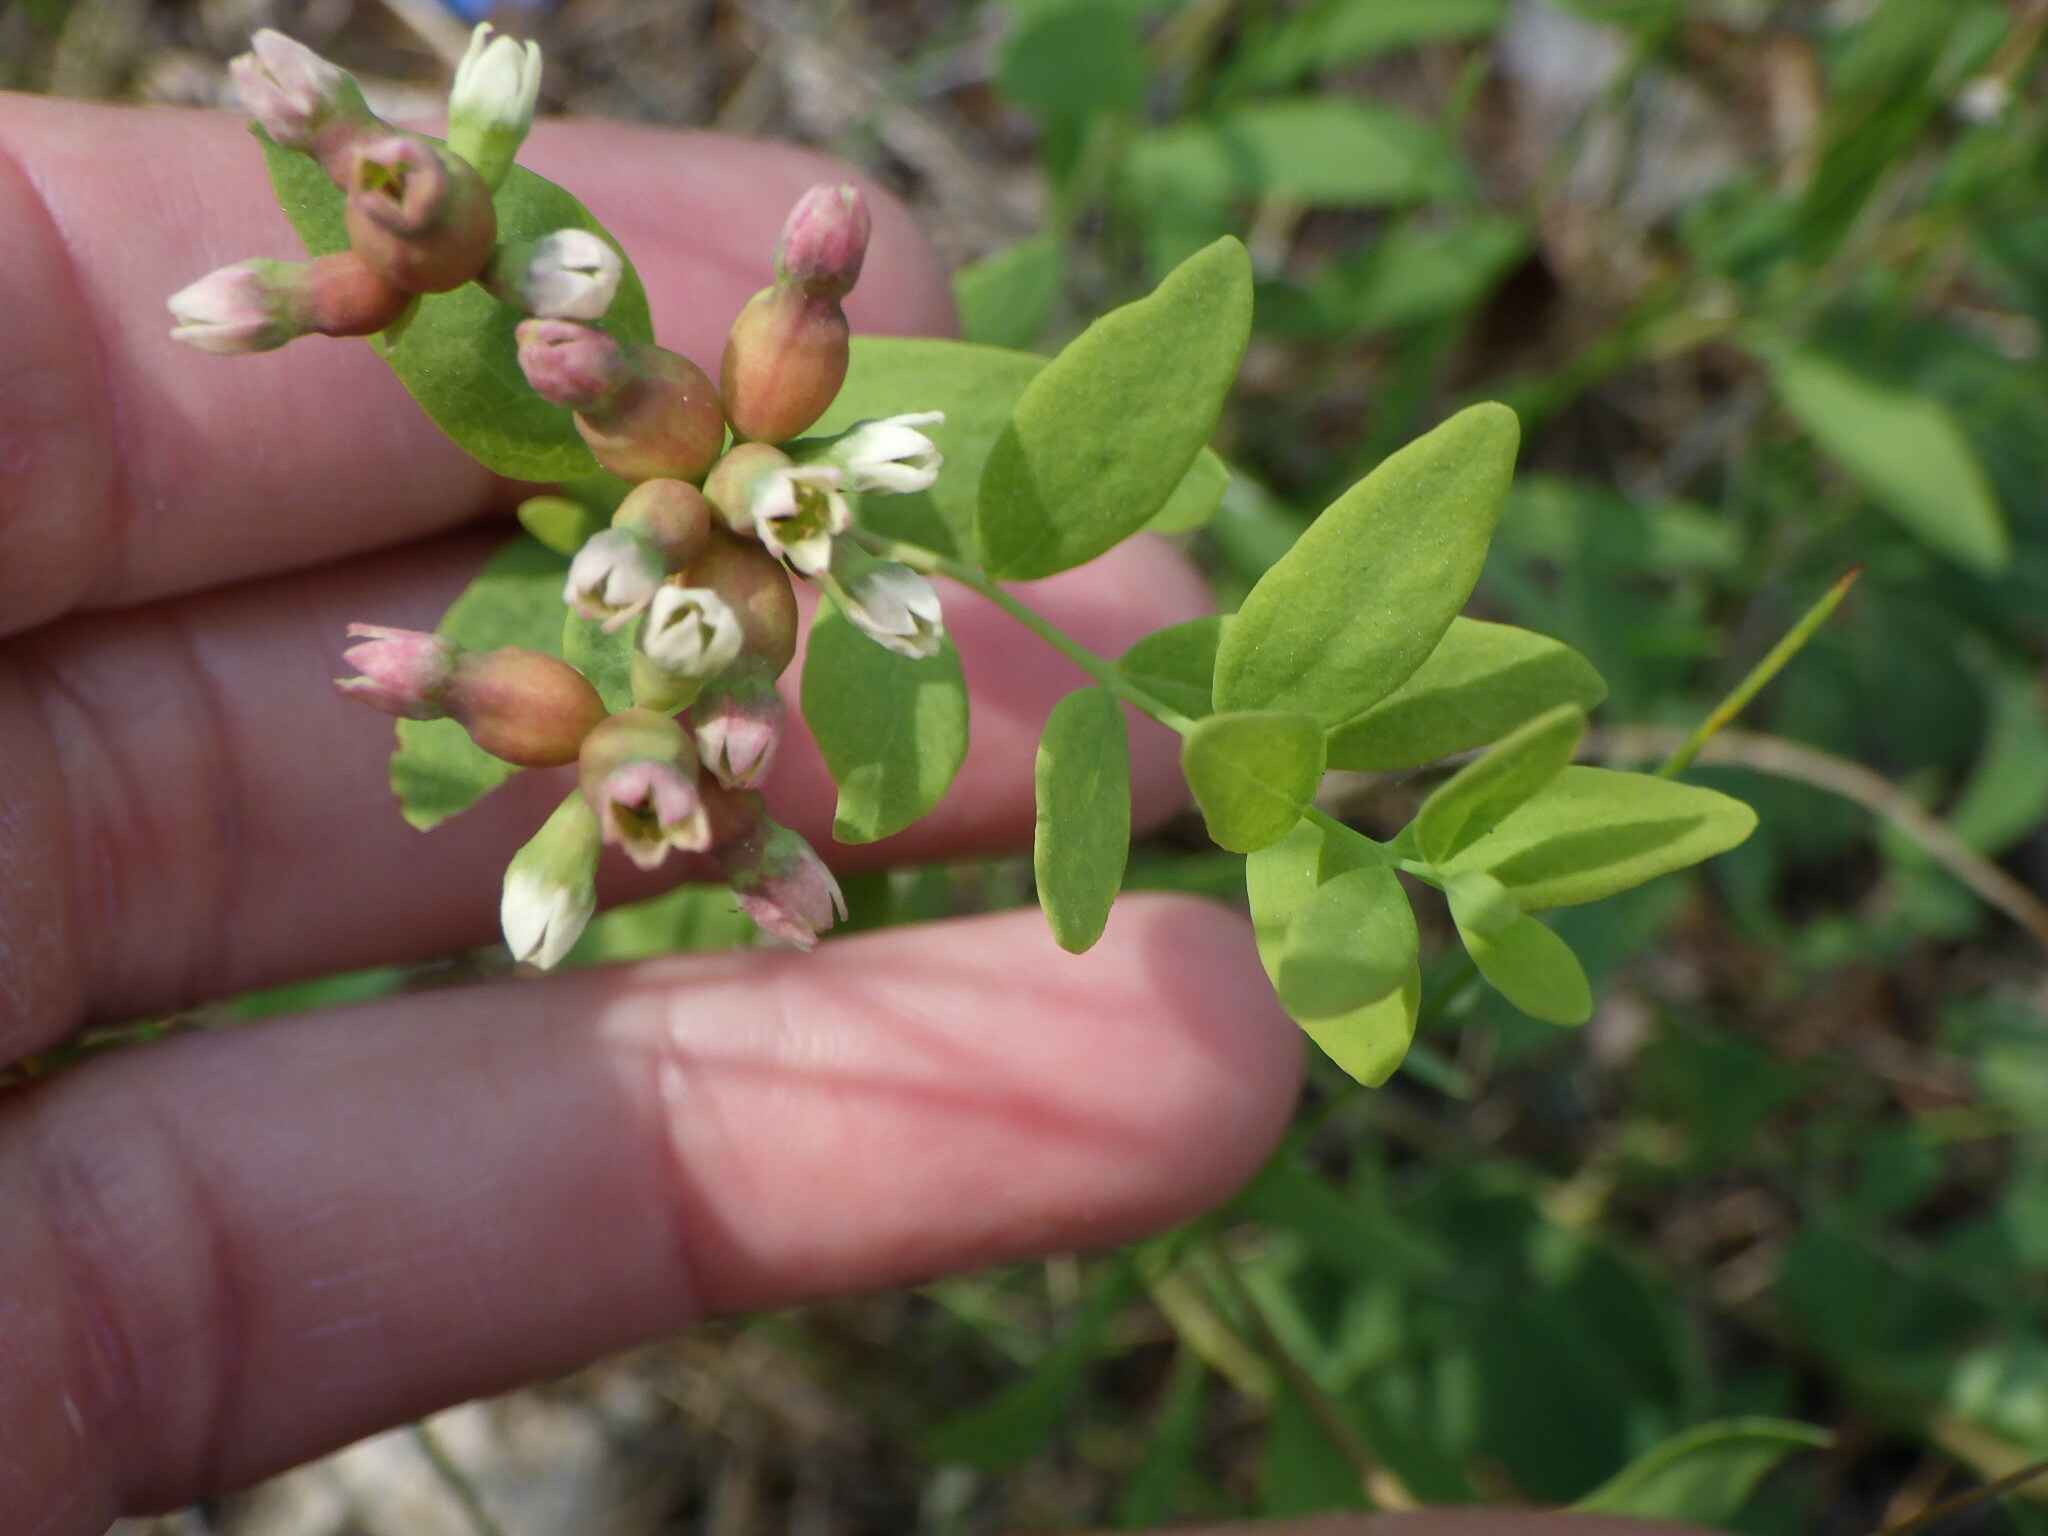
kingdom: Plantae
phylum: Tracheophyta
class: Magnoliopsida
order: Santalales
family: Comandraceae
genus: Comandra
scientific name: Comandra umbellata
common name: Bastard toadflax
